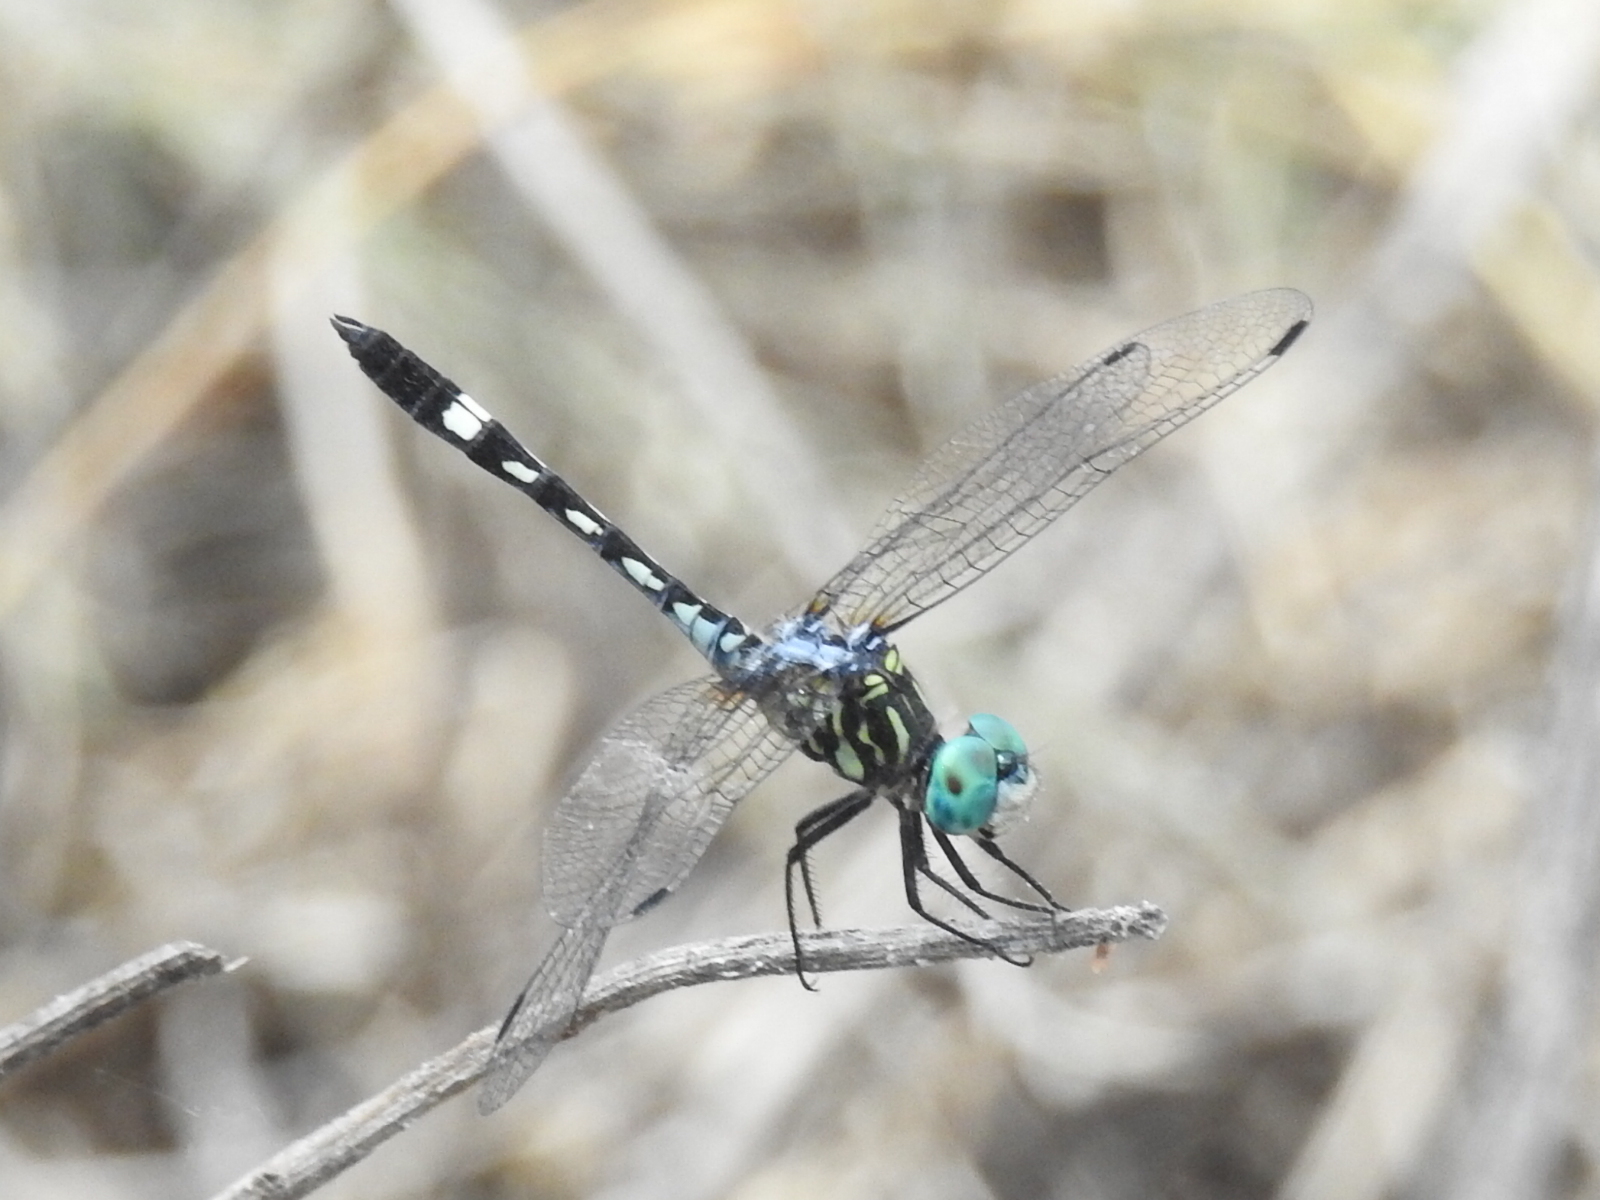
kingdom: Animalia
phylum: Arthropoda
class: Insecta
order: Odonata
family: Libellulidae
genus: Micrathyria
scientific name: Micrathyria hagenii
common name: Thornbush dasher
